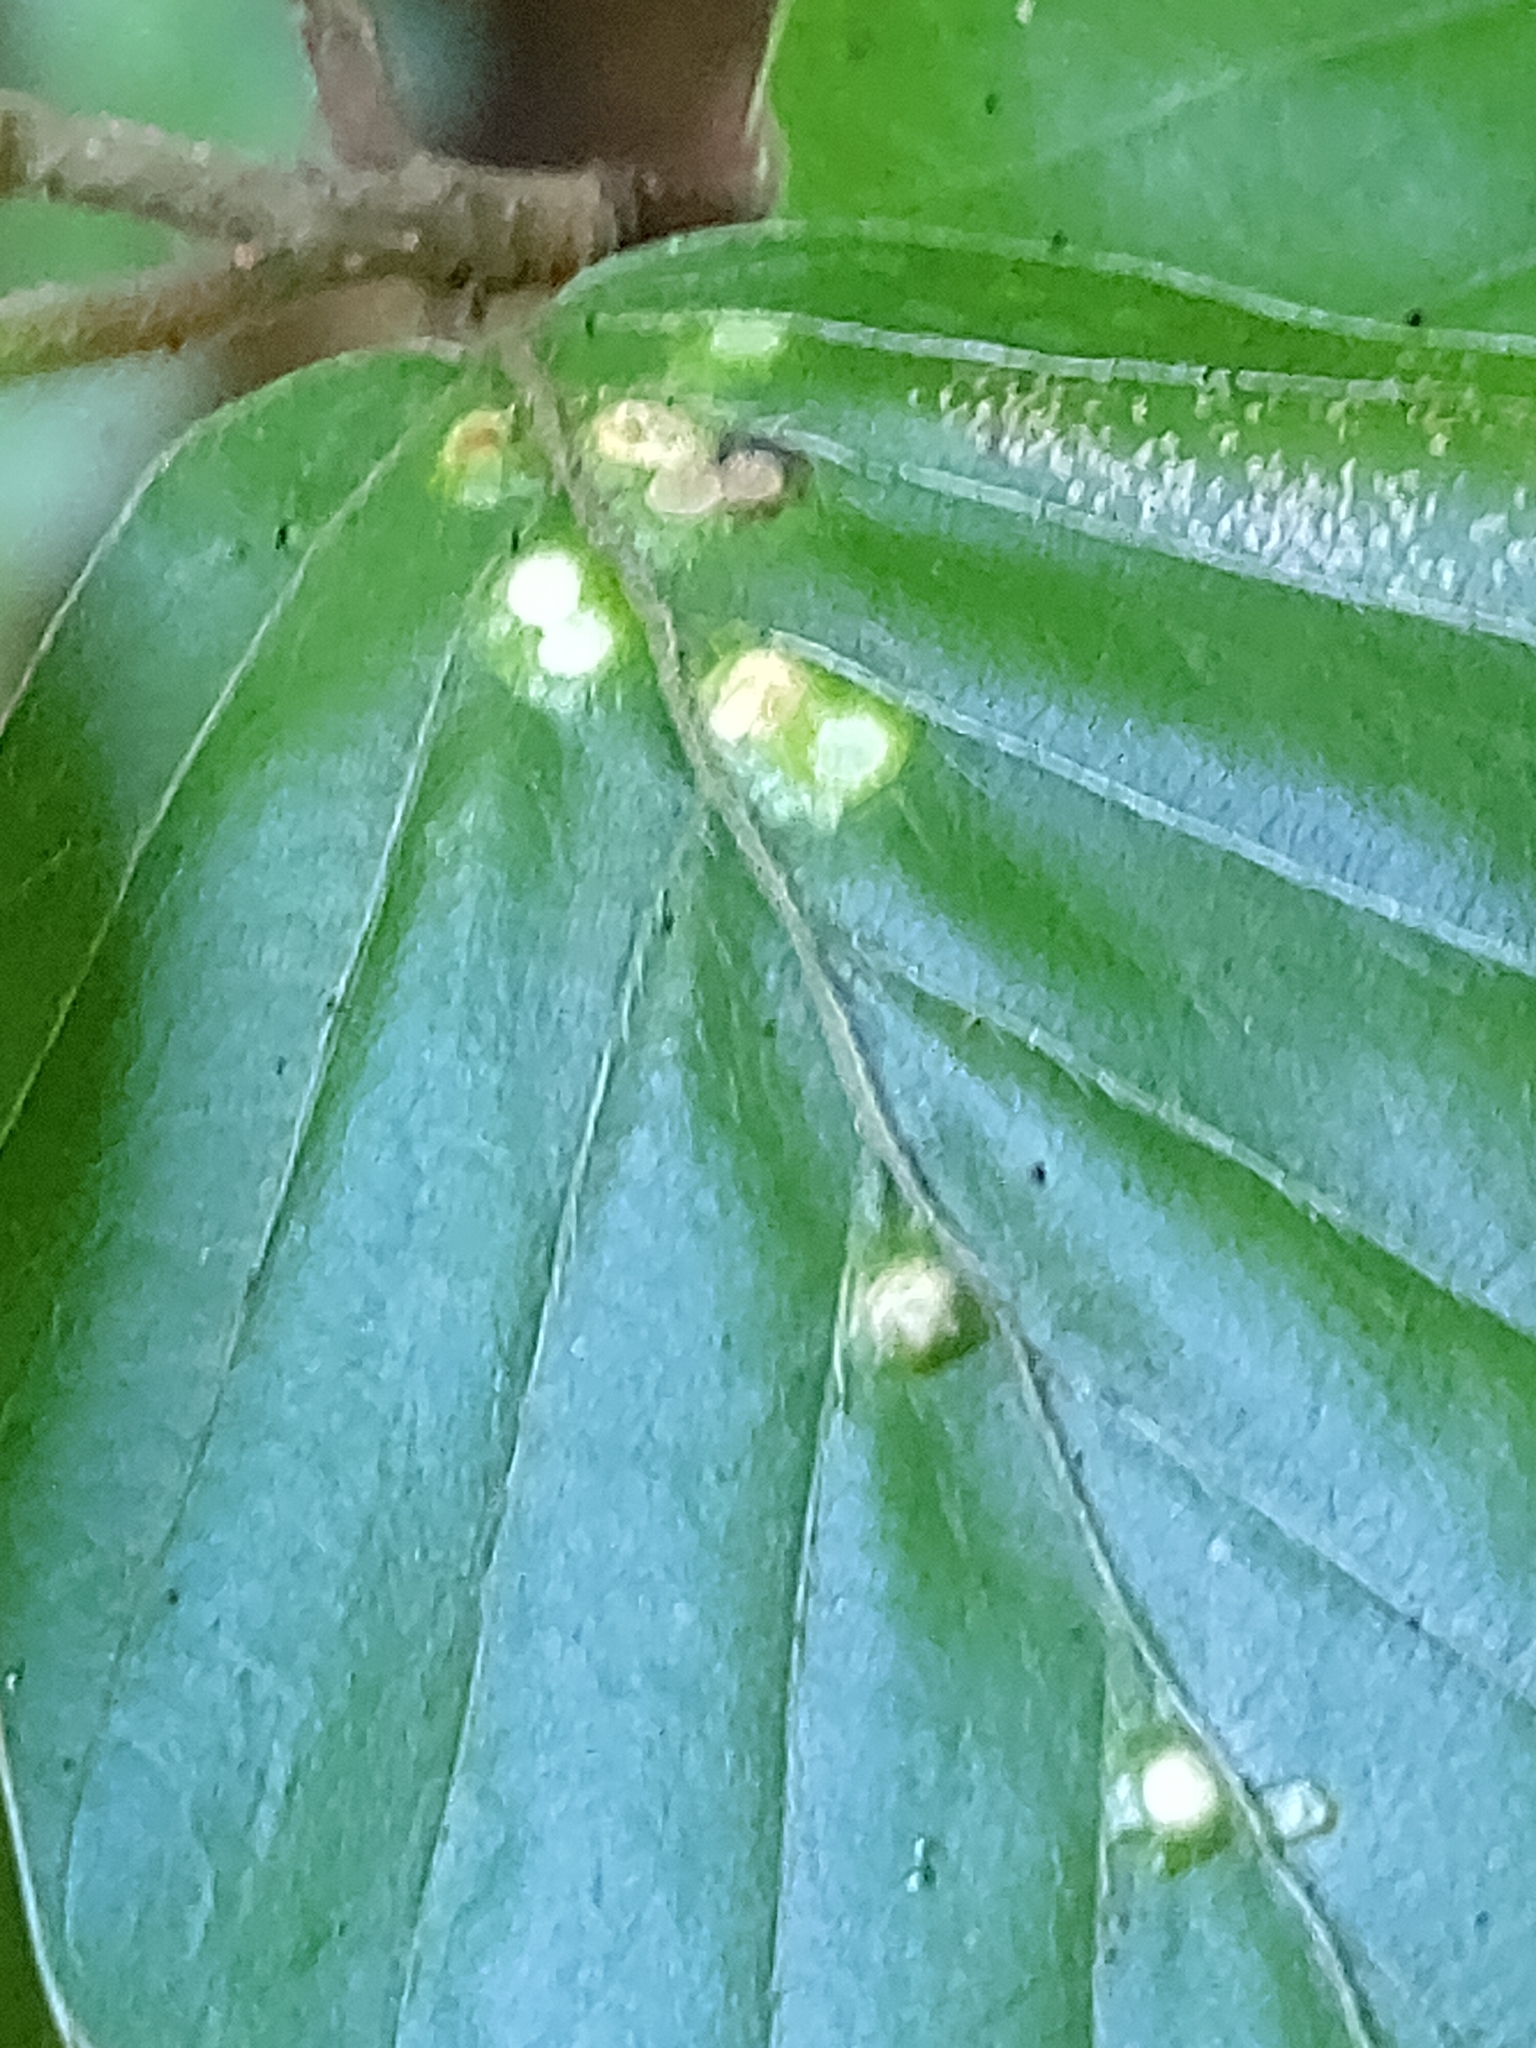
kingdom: Animalia
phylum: Arthropoda
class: Insecta
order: Diptera
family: Cecidomyiidae
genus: Hartigiola
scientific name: Hartigiola annulipes
